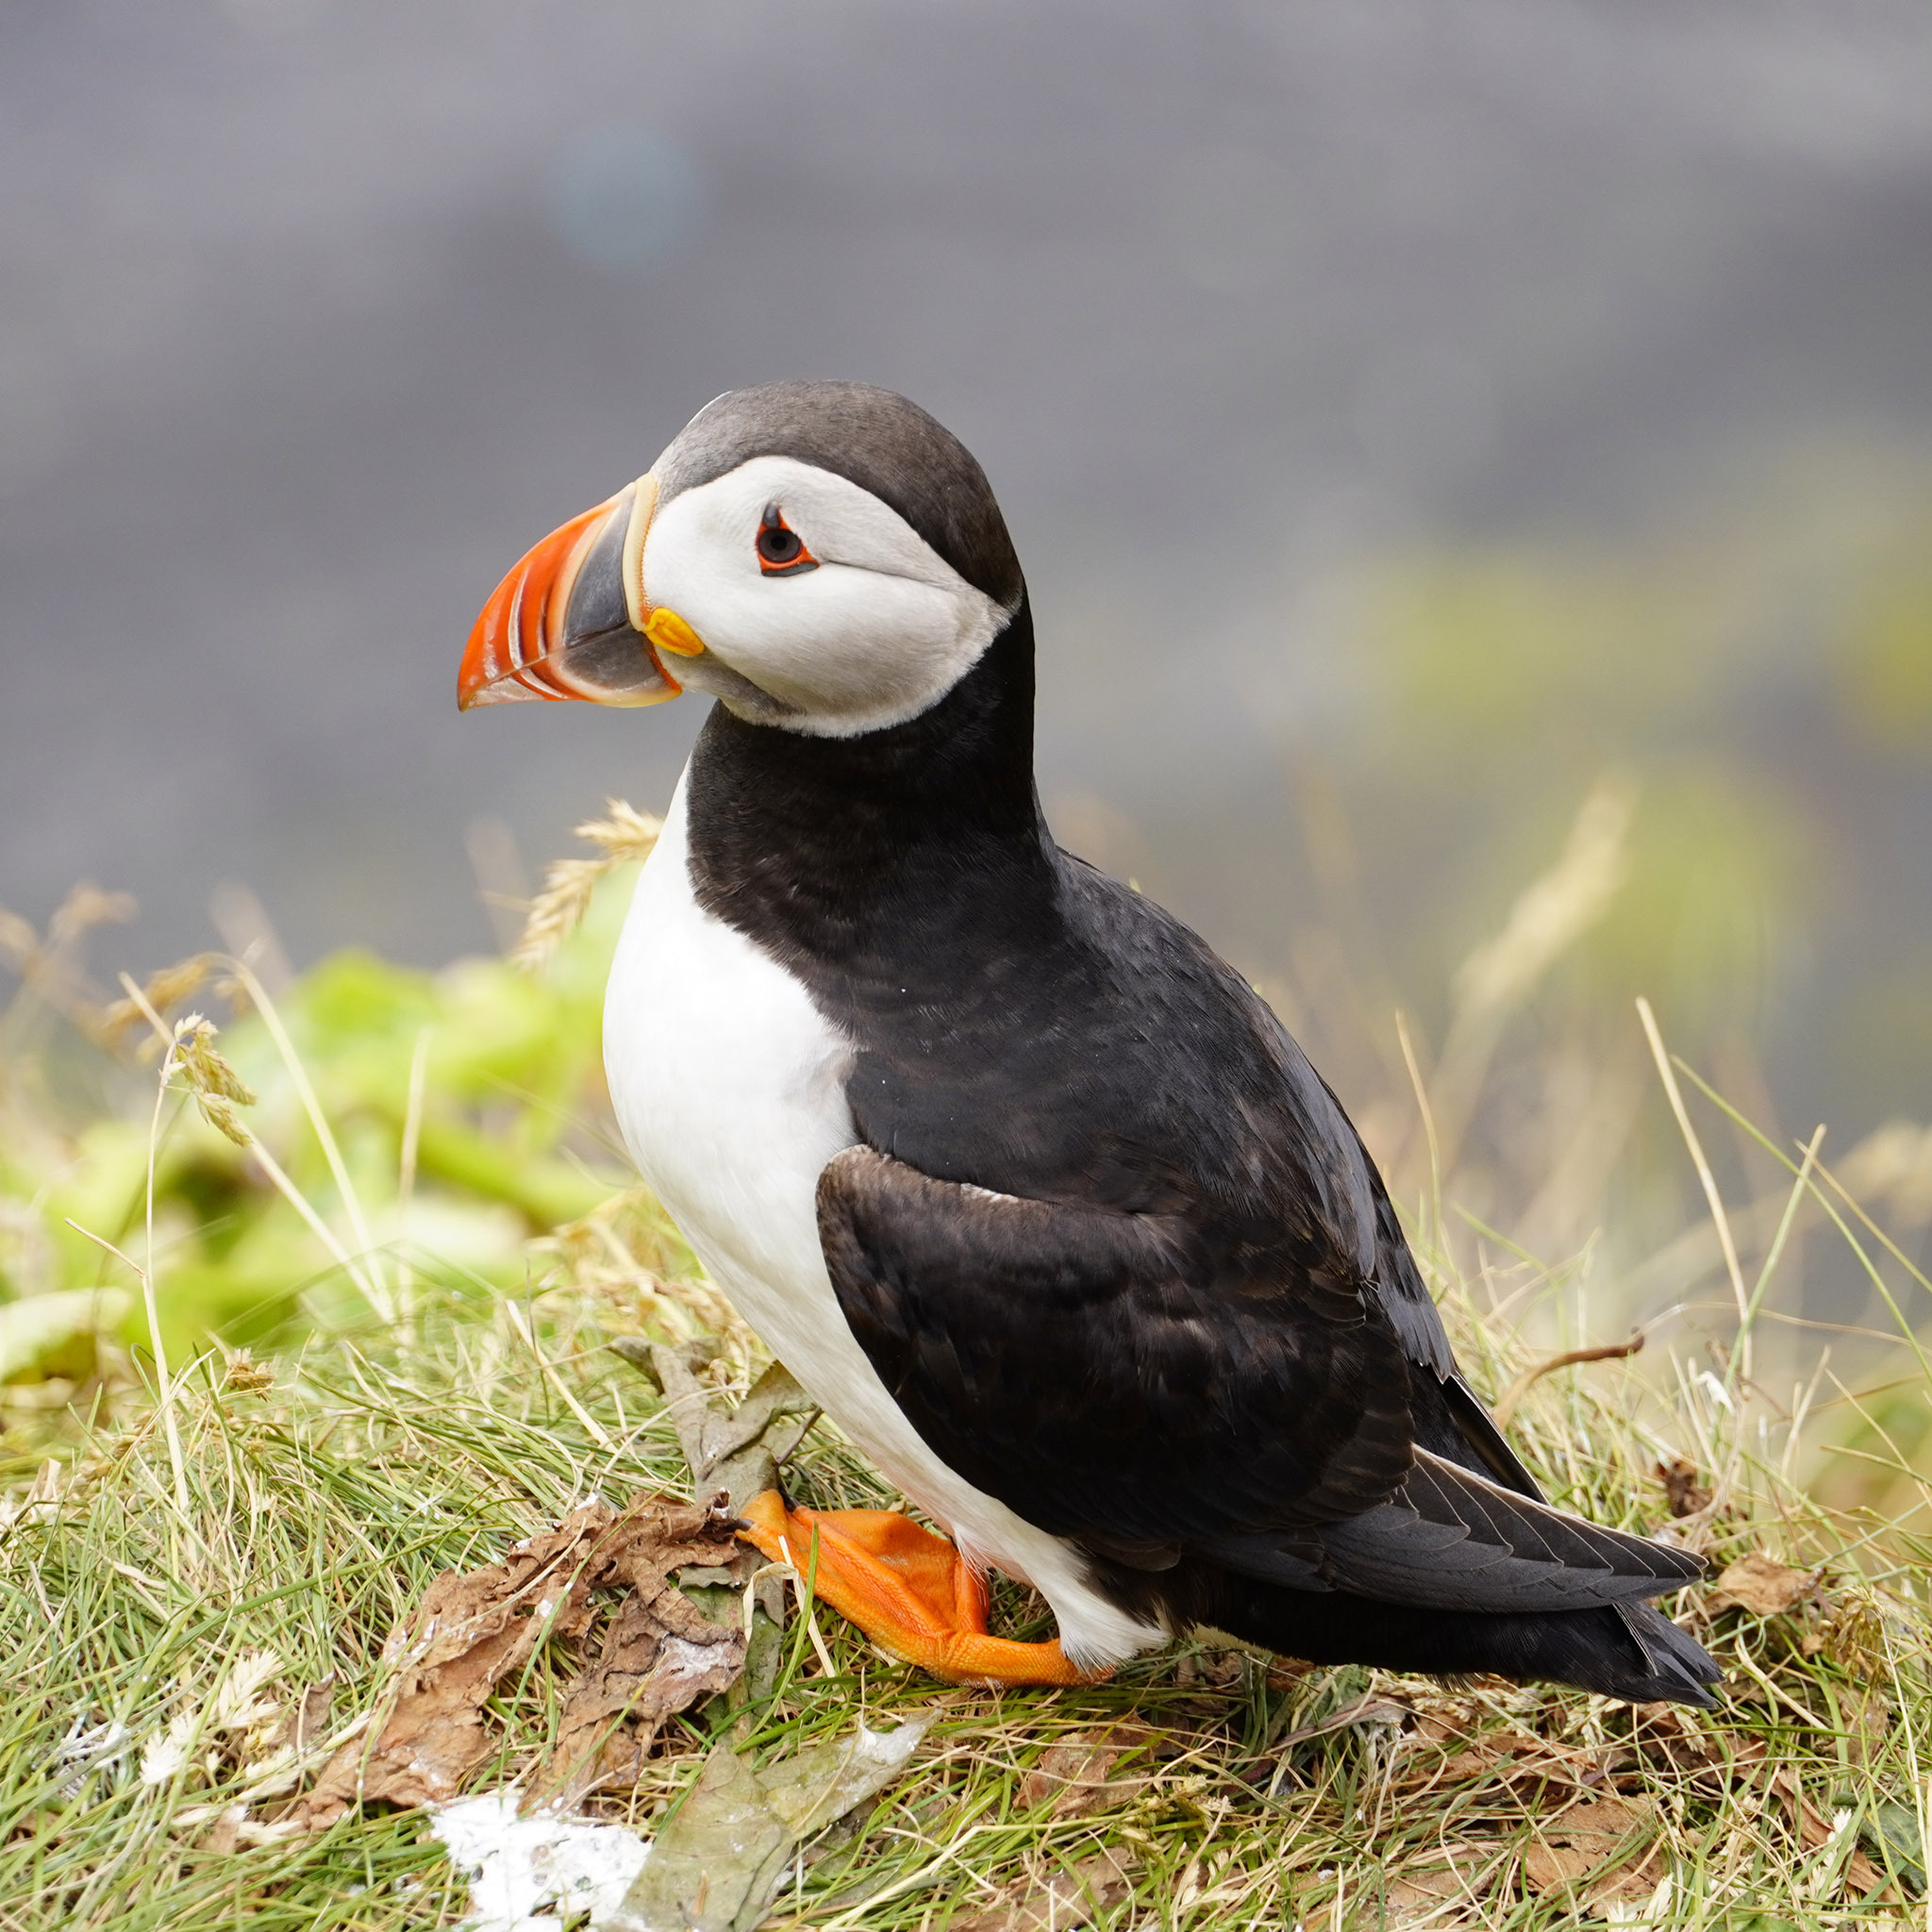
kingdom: Animalia
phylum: Chordata
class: Aves
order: Charadriiformes
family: Alcidae
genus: Fratercula
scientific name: Fratercula arctica
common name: Atlantic puffin
